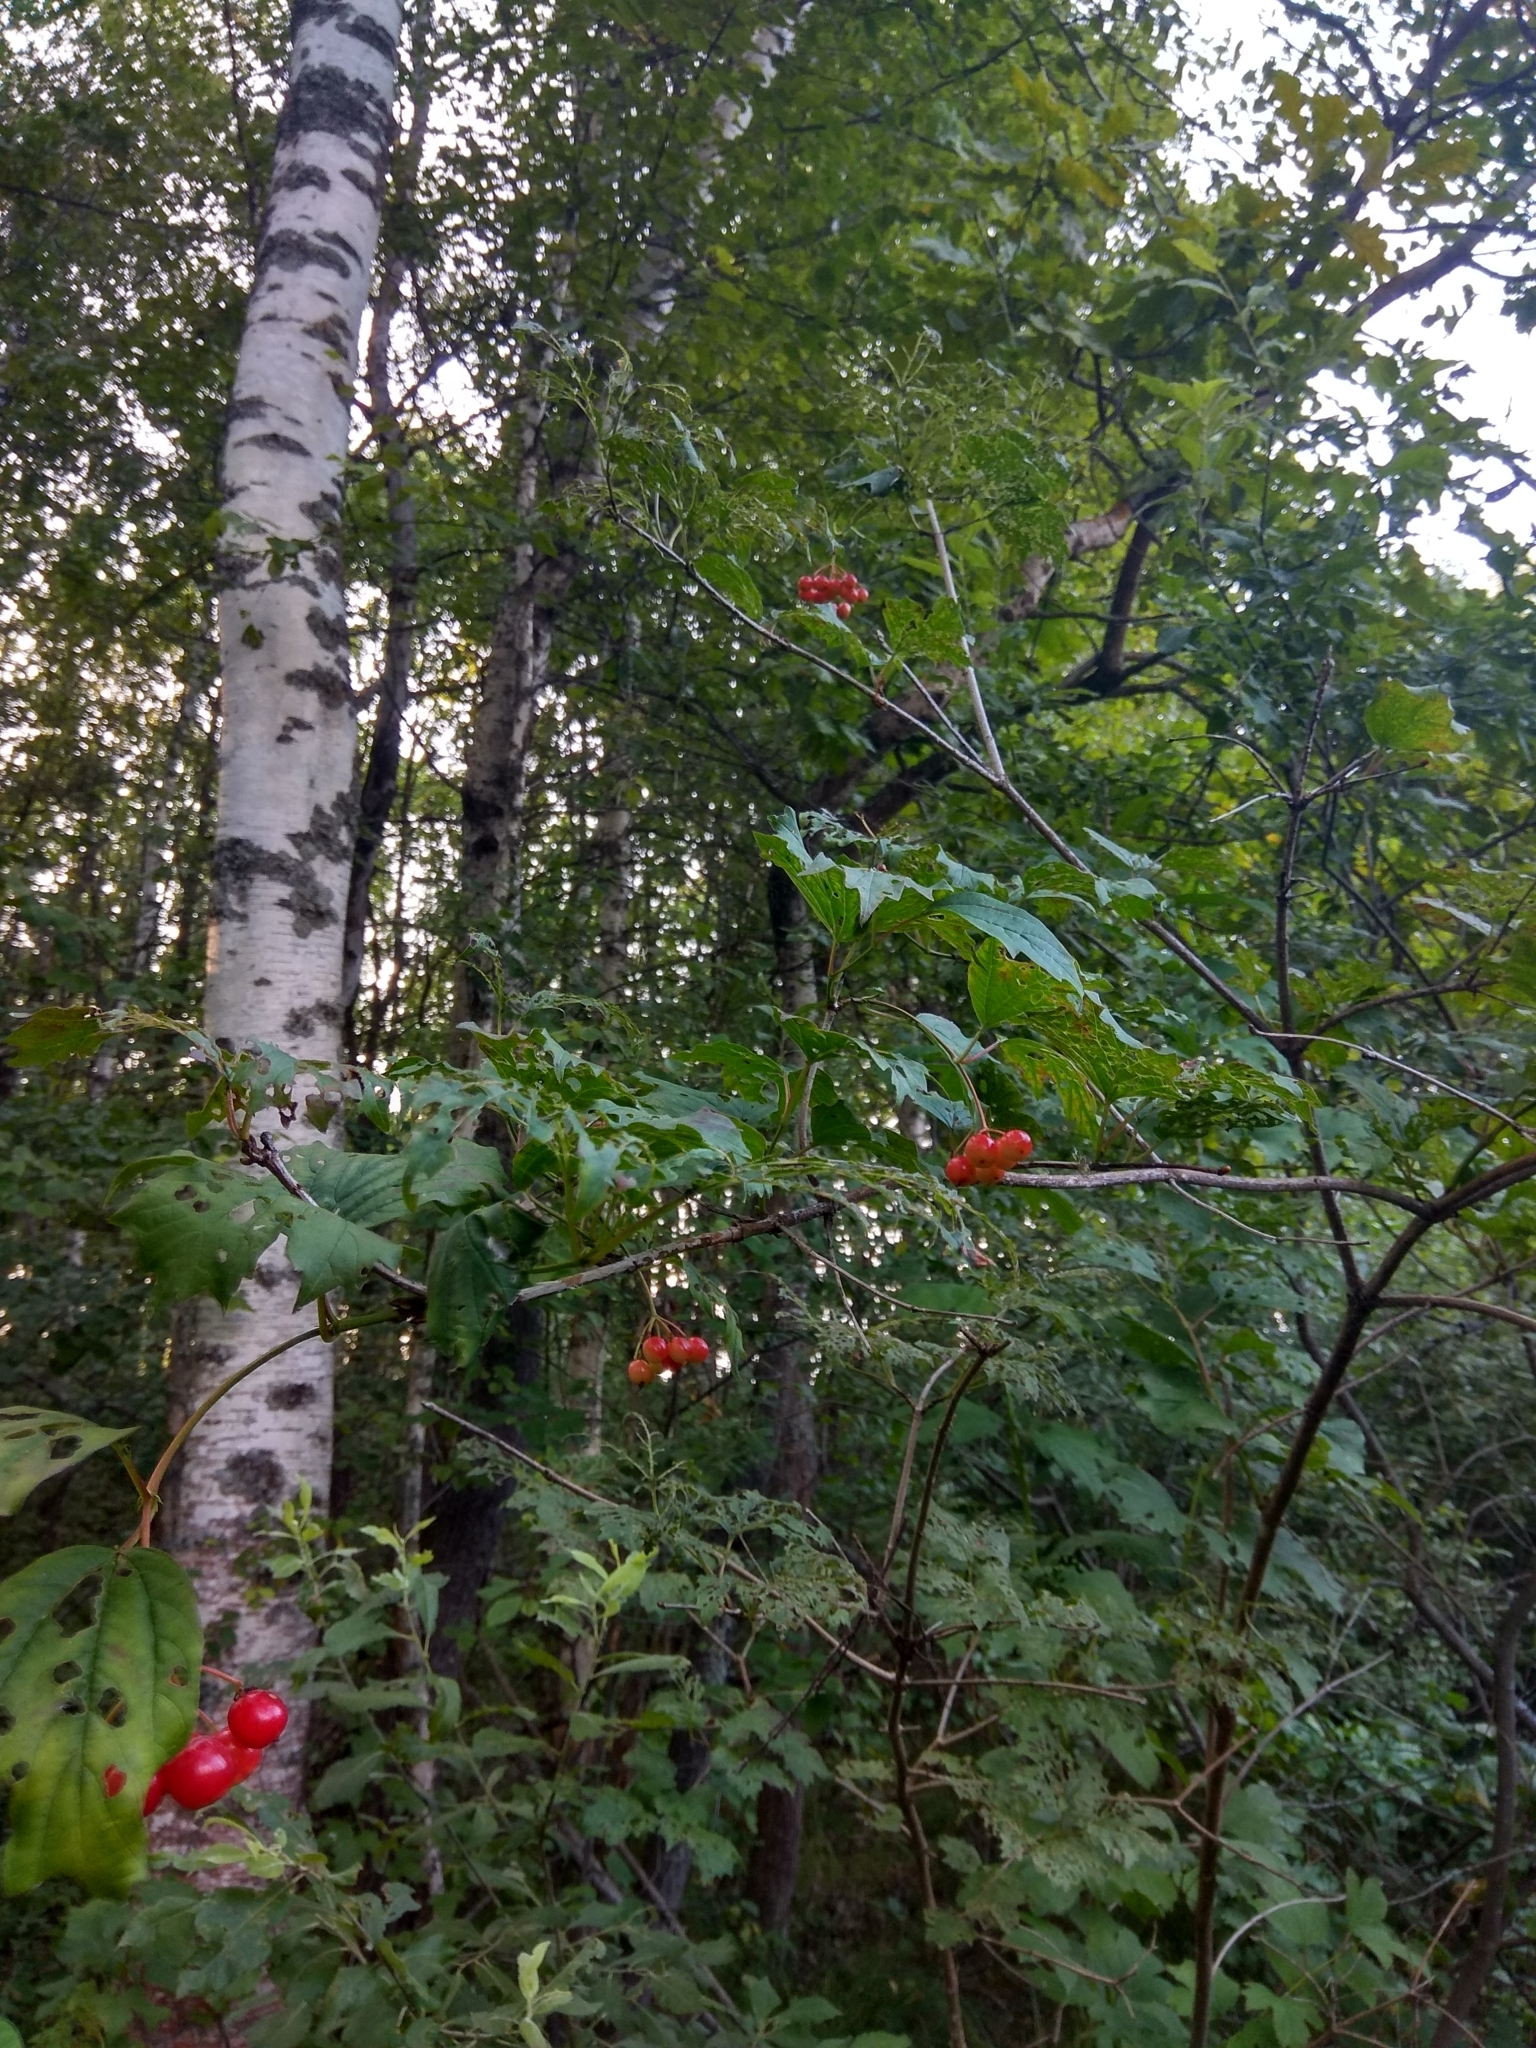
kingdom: Plantae
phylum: Tracheophyta
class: Magnoliopsida
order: Dipsacales
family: Viburnaceae
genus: Viburnum
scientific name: Viburnum opulus
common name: Guelder-rose
